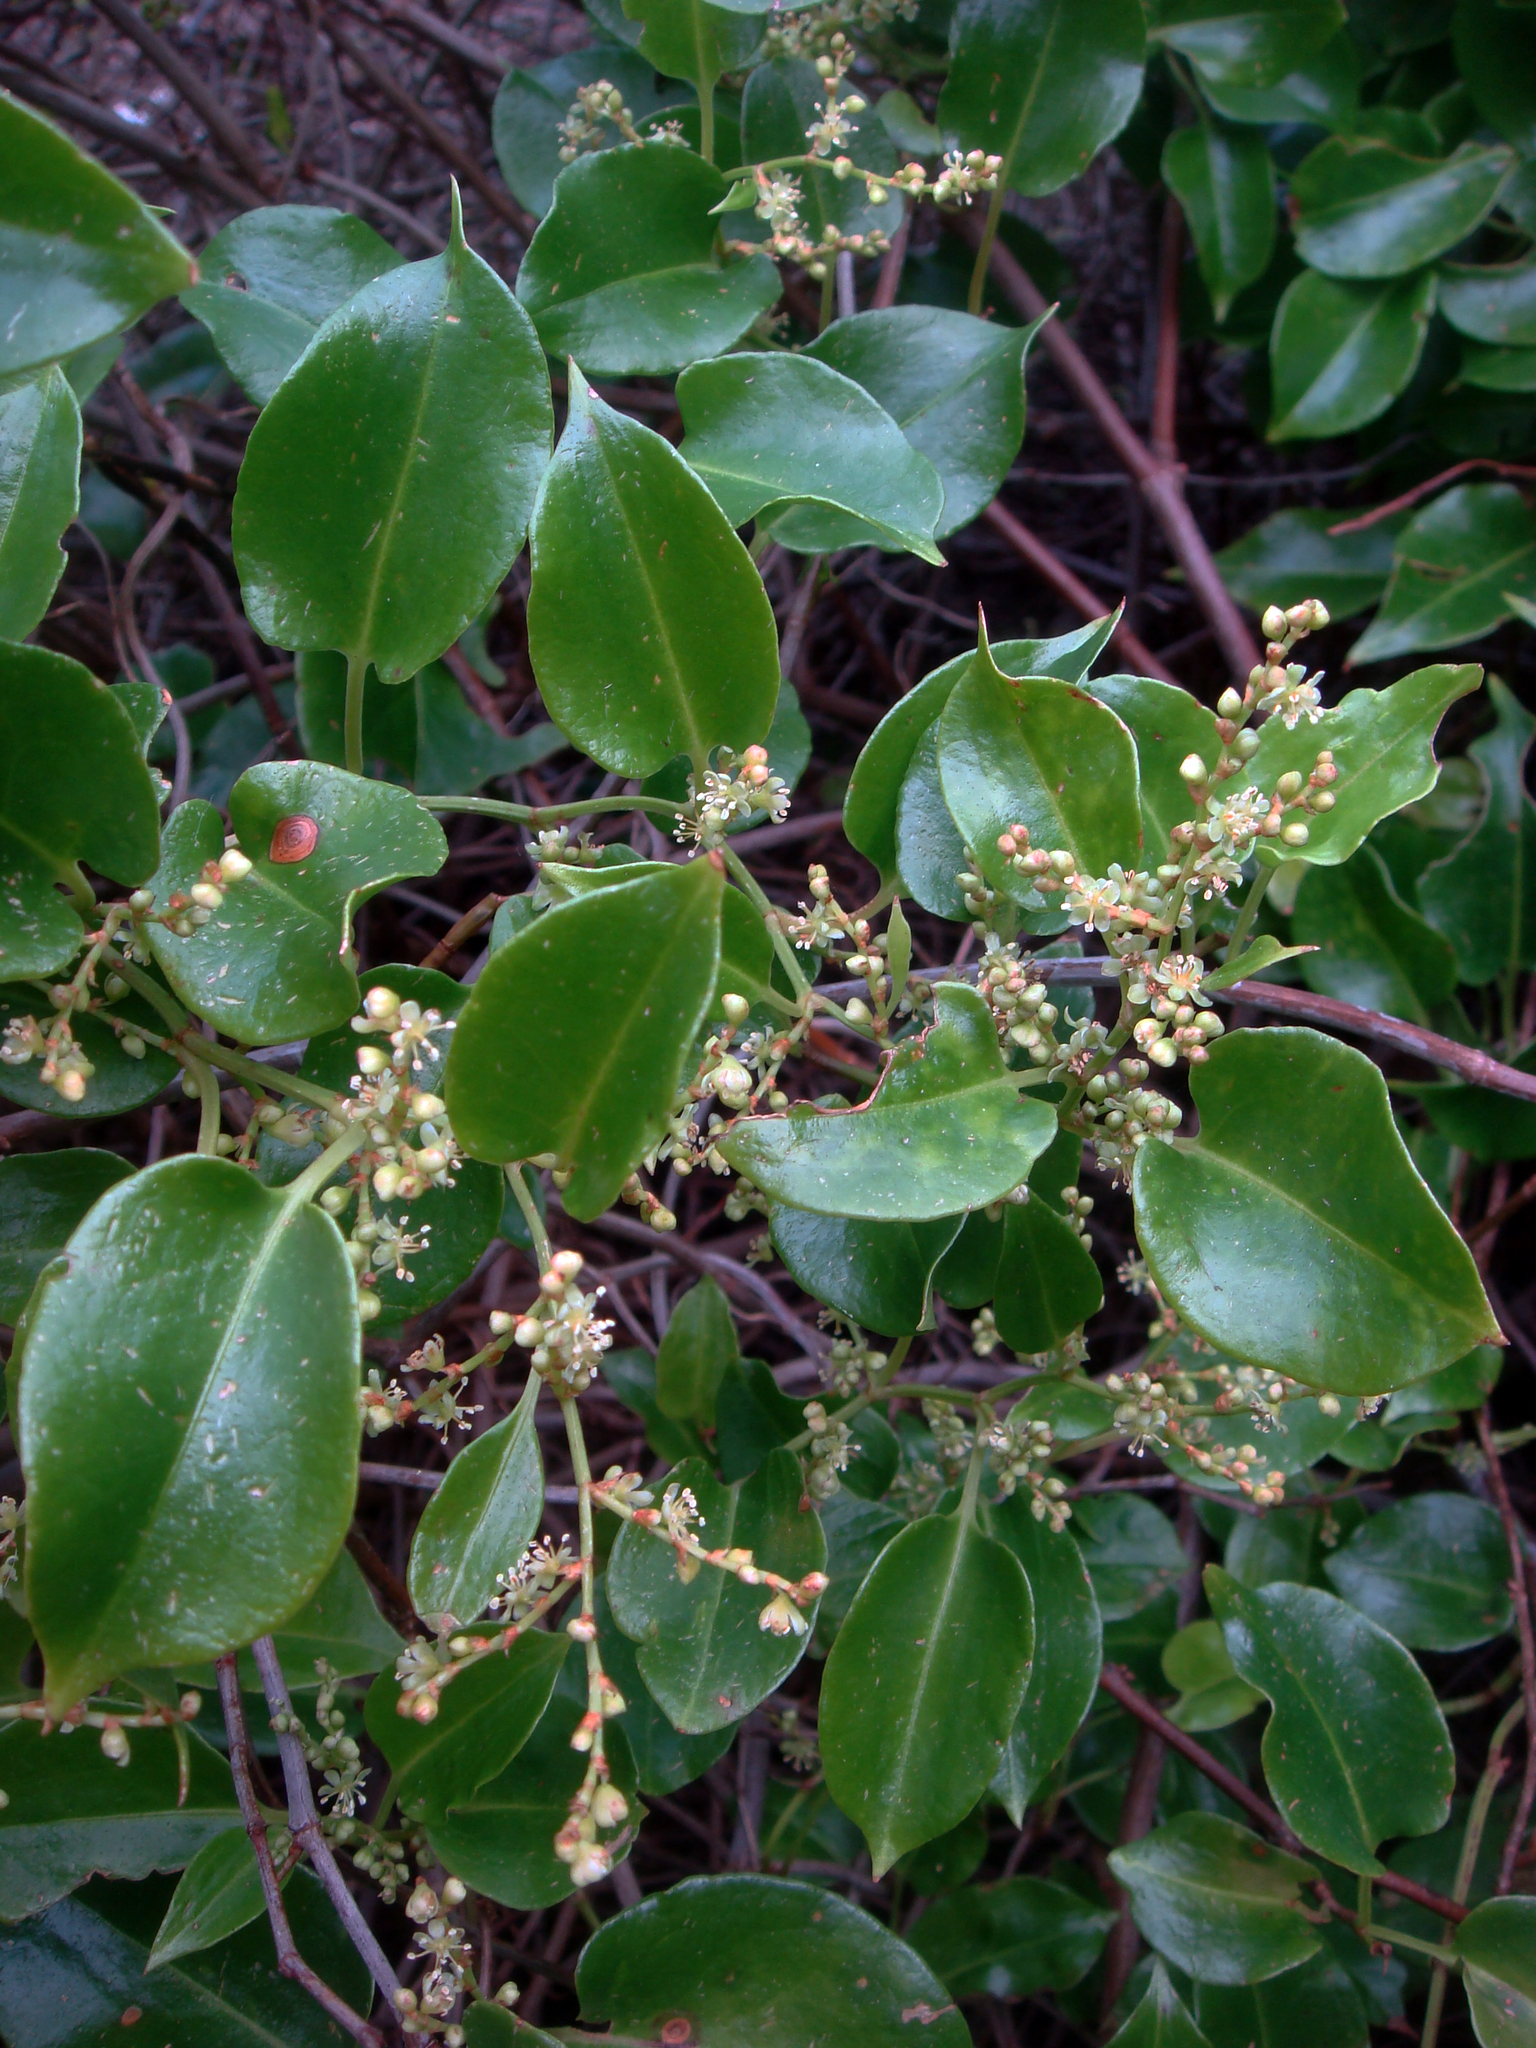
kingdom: Plantae
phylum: Tracheophyta
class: Magnoliopsida
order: Caryophyllales
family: Polygonaceae
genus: Muehlenbeckia
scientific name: Muehlenbeckia australis
